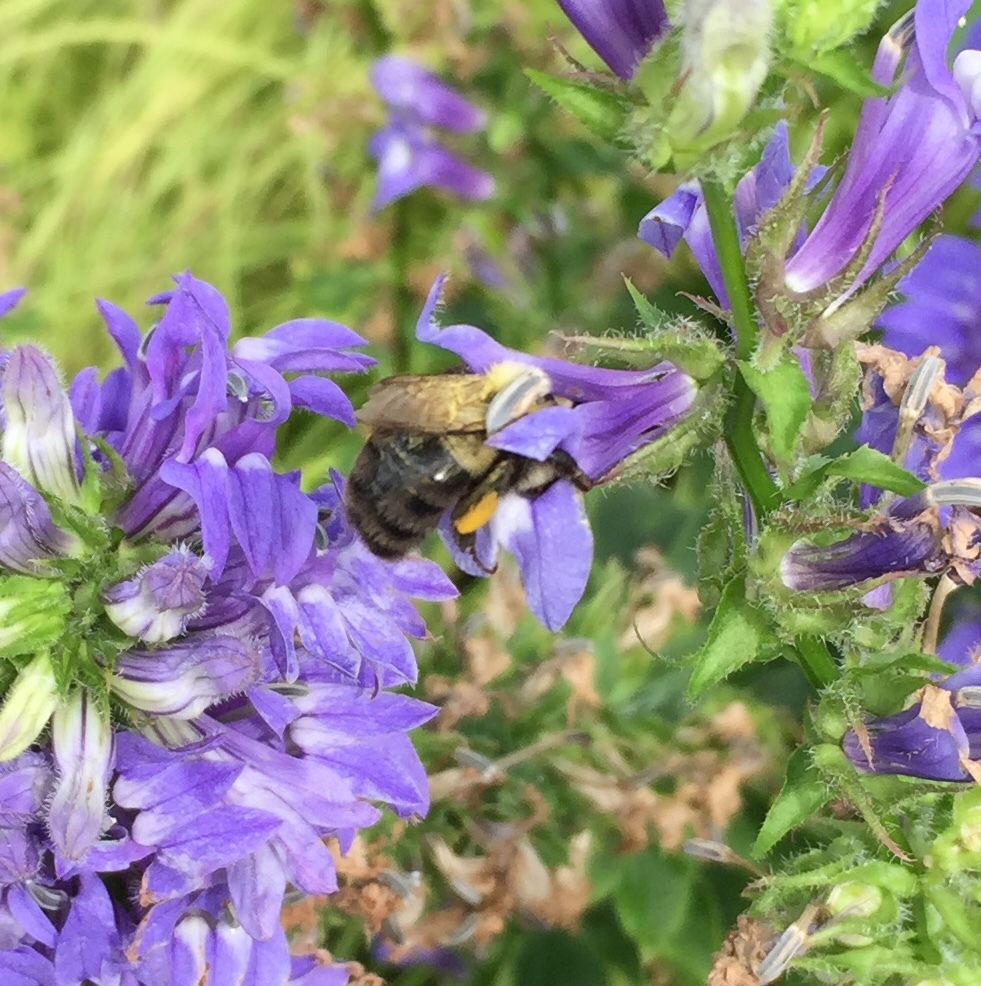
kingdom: Animalia
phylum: Arthropoda
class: Insecta
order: Hymenoptera
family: Apidae
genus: Bombus
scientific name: Bombus impatiens
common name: Common eastern bumble bee
